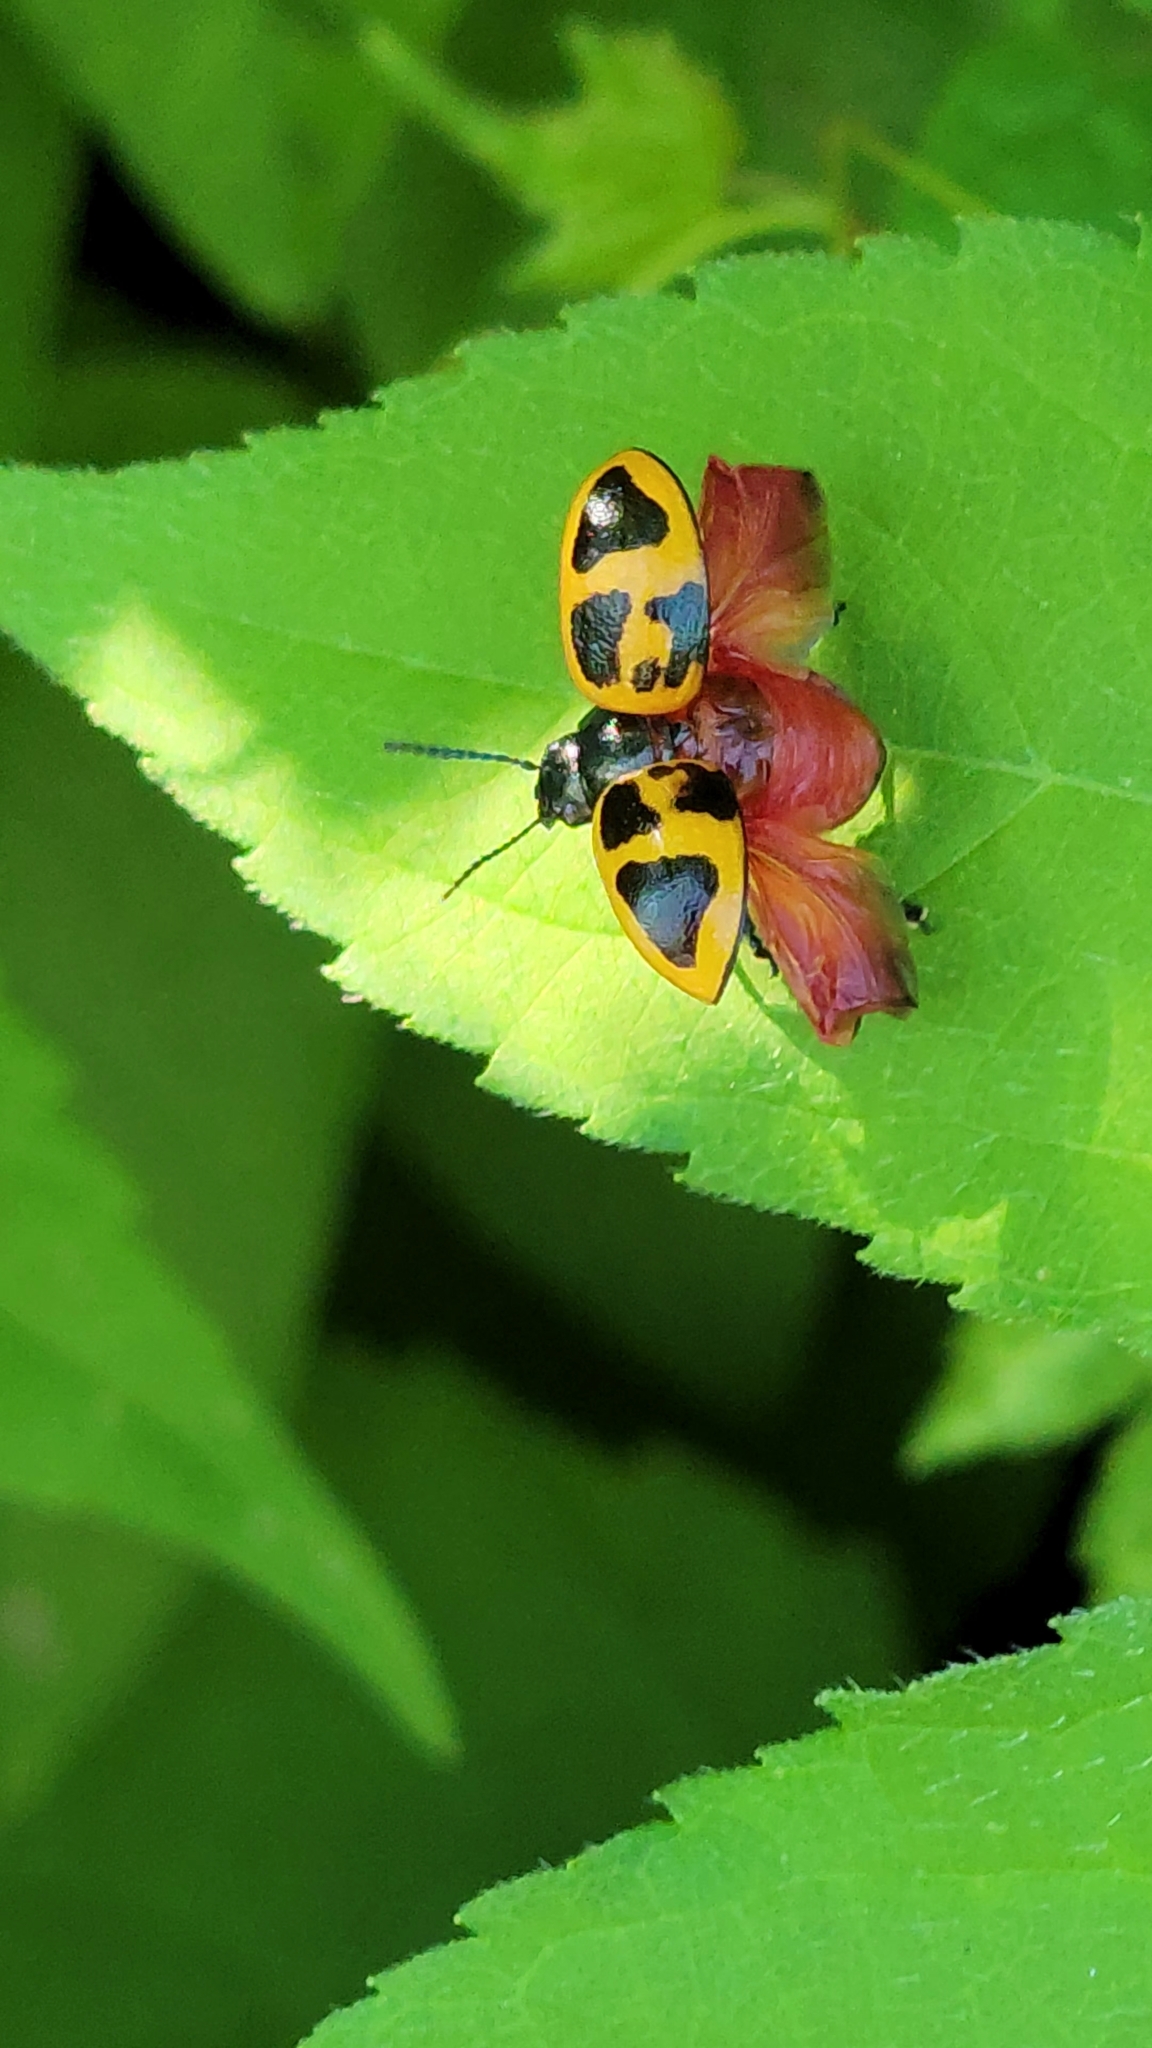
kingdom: Animalia
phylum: Arthropoda
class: Insecta
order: Coleoptera
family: Chrysomelidae
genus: Labidomera
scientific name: Labidomera clivicollis
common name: Swamp milkweed leaf beetle
